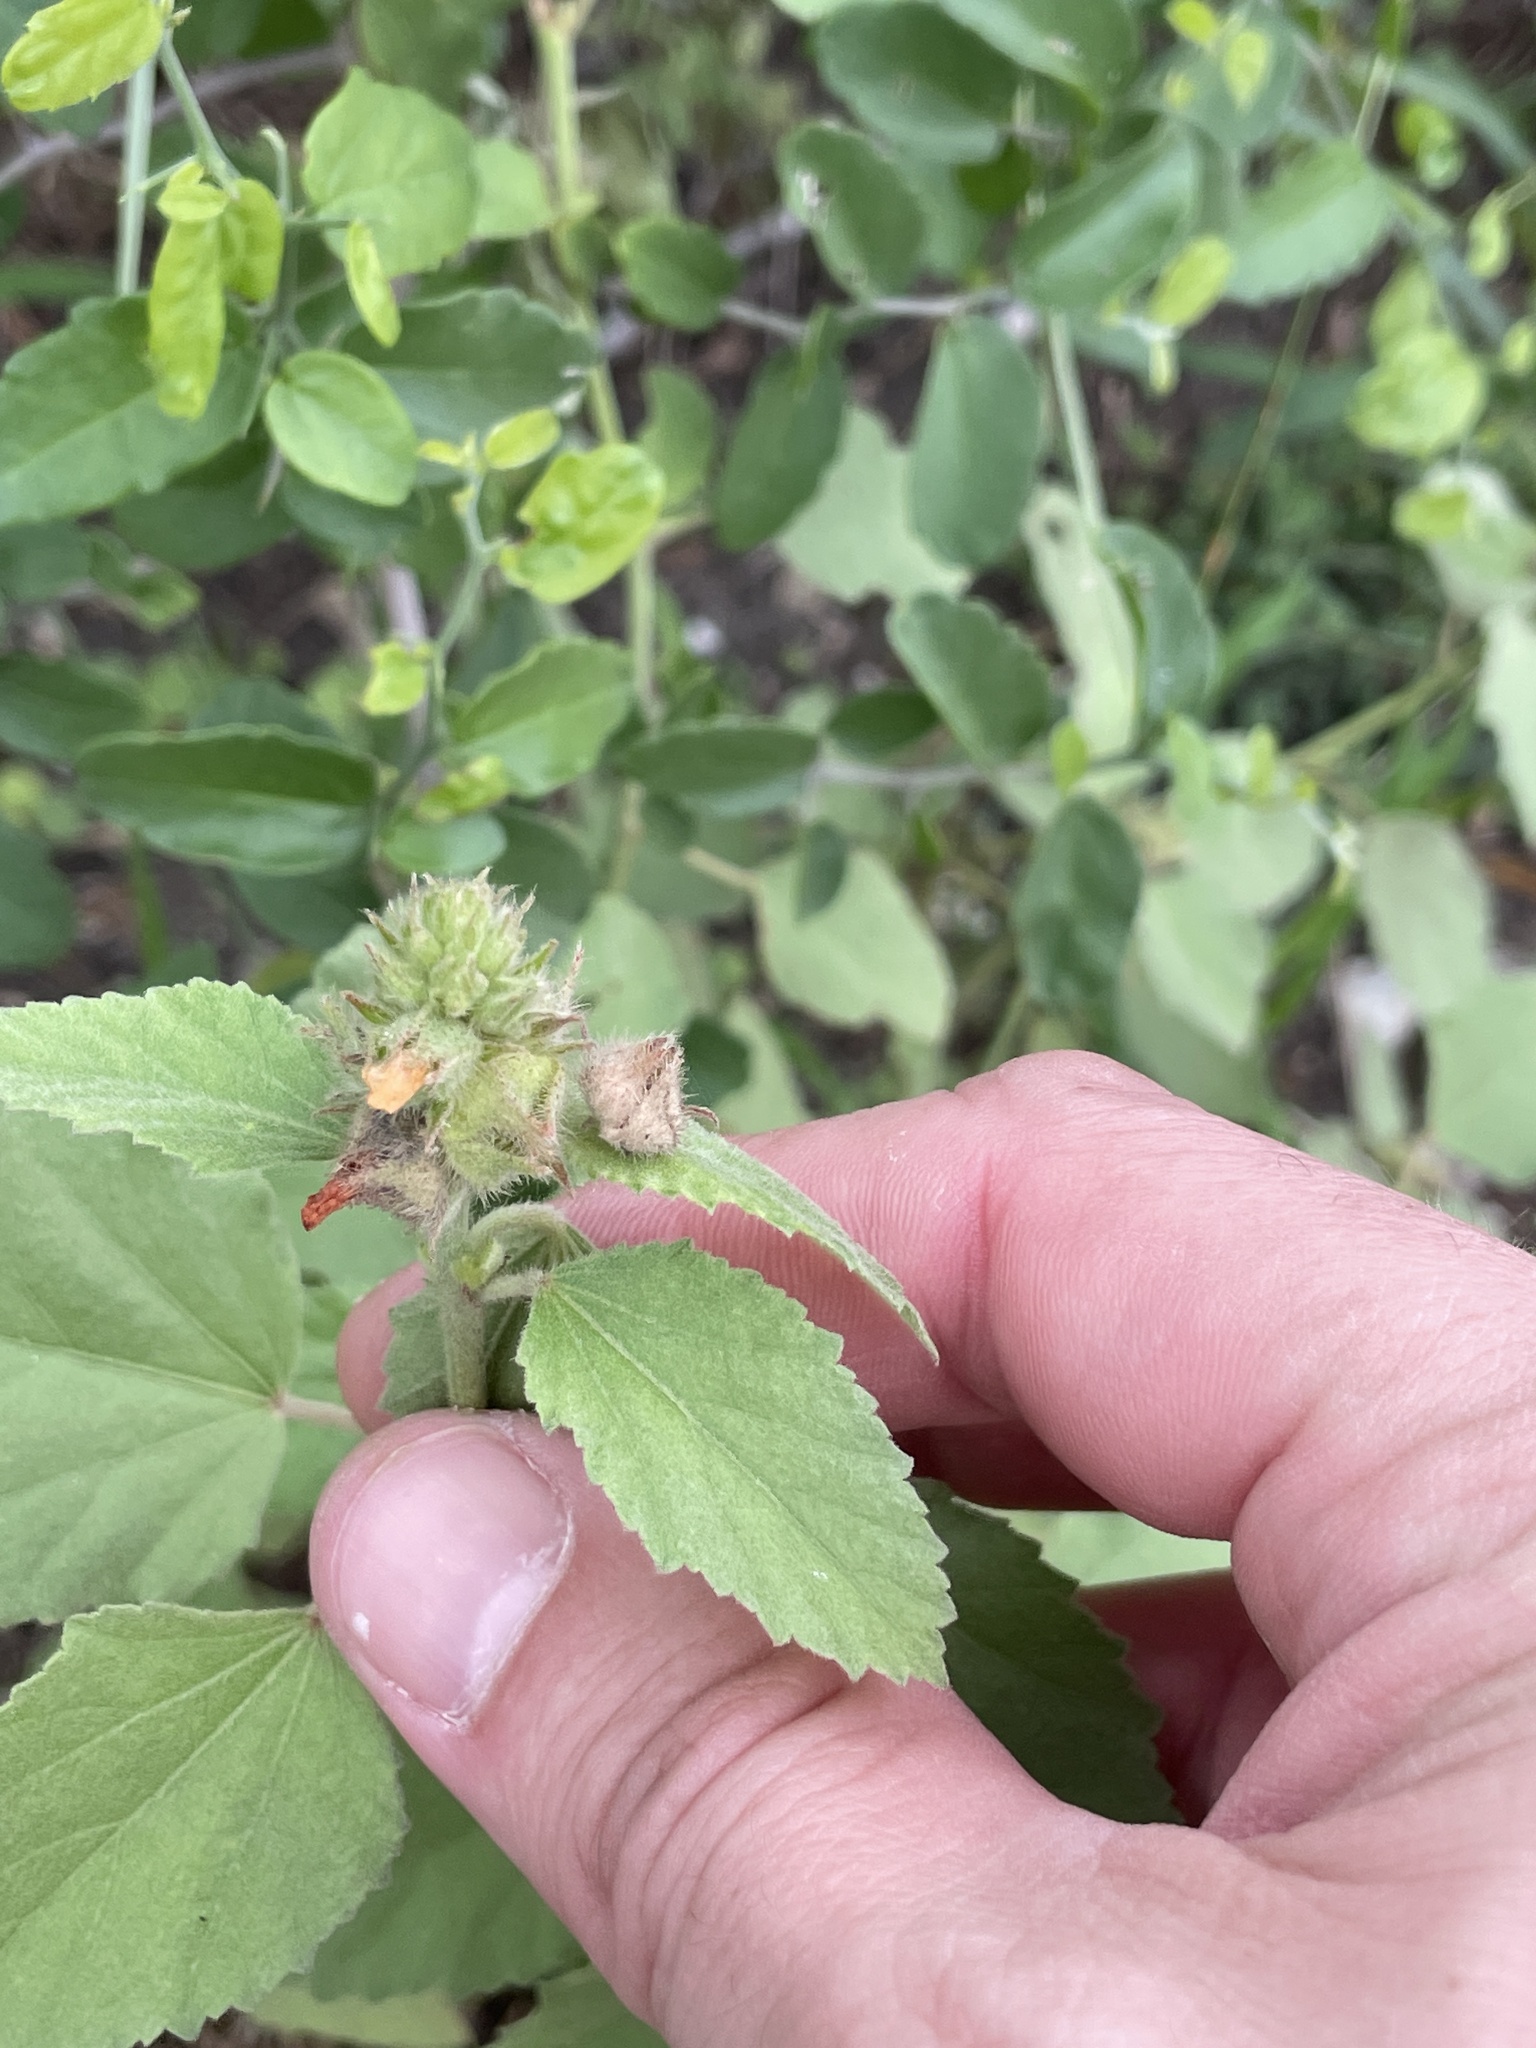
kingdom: Plantae
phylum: Tracheophyta
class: Magnoliopsida
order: Malvales
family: Malvaceae
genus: Malvastrum
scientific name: Malvastrum americanum
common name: Spiked malvastrum
